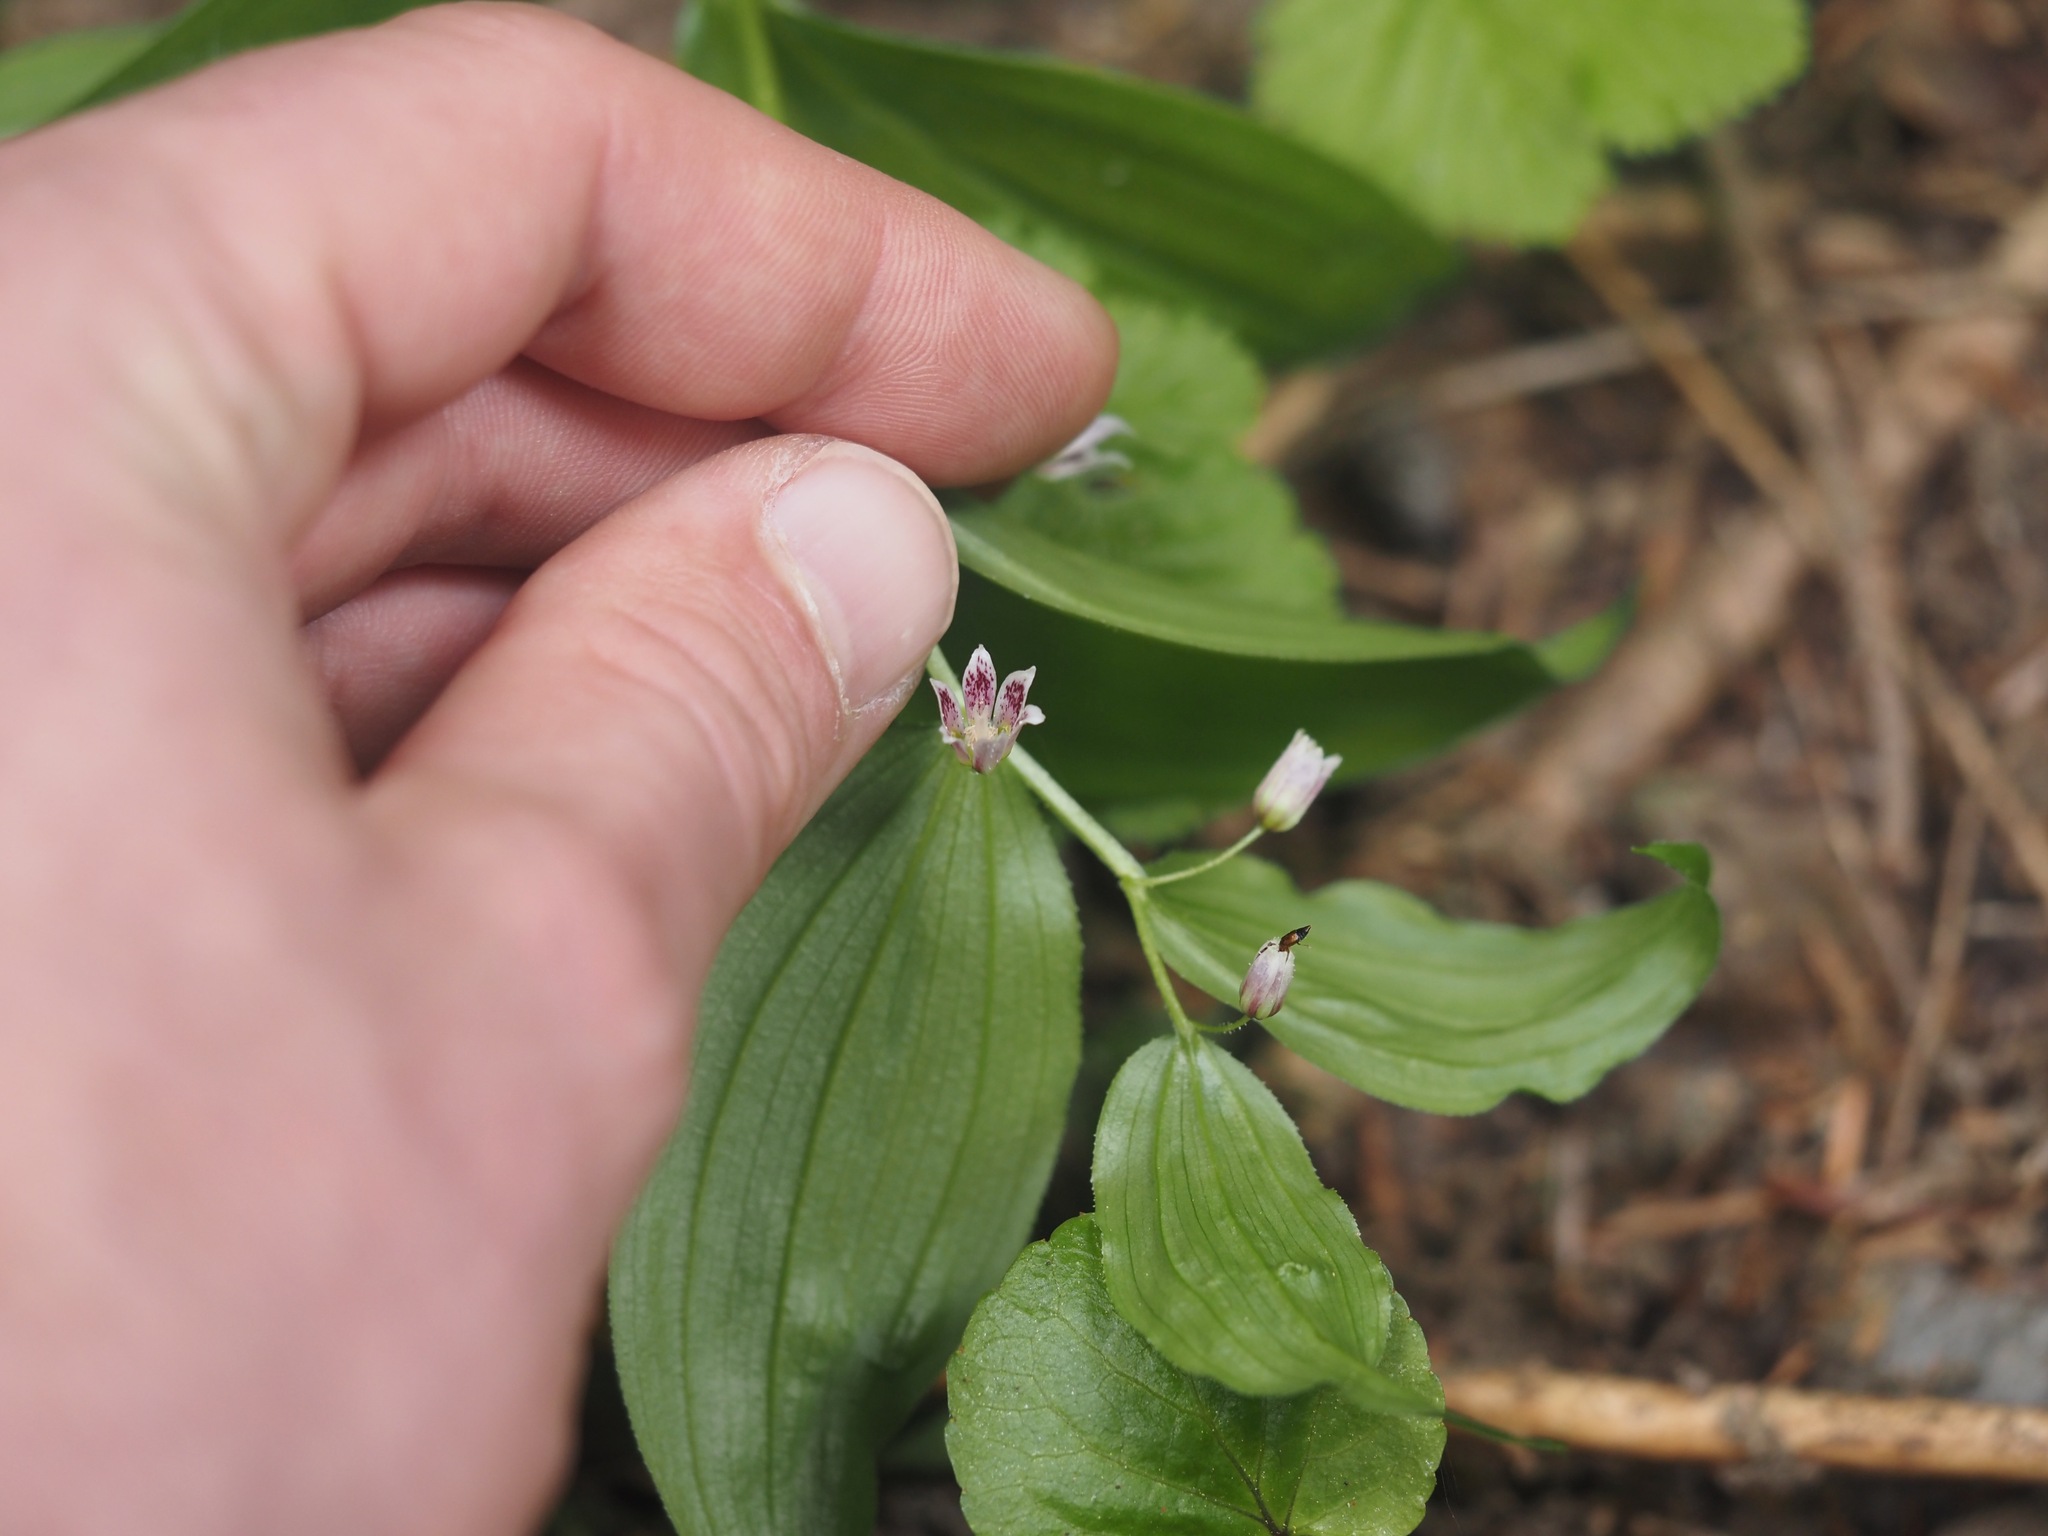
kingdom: Plantae
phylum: Tracheophyta
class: Liliopsida
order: Liliales
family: Liliaceae
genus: Streptopus
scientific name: Streptopus lanceolatus
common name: Rose mandarin
